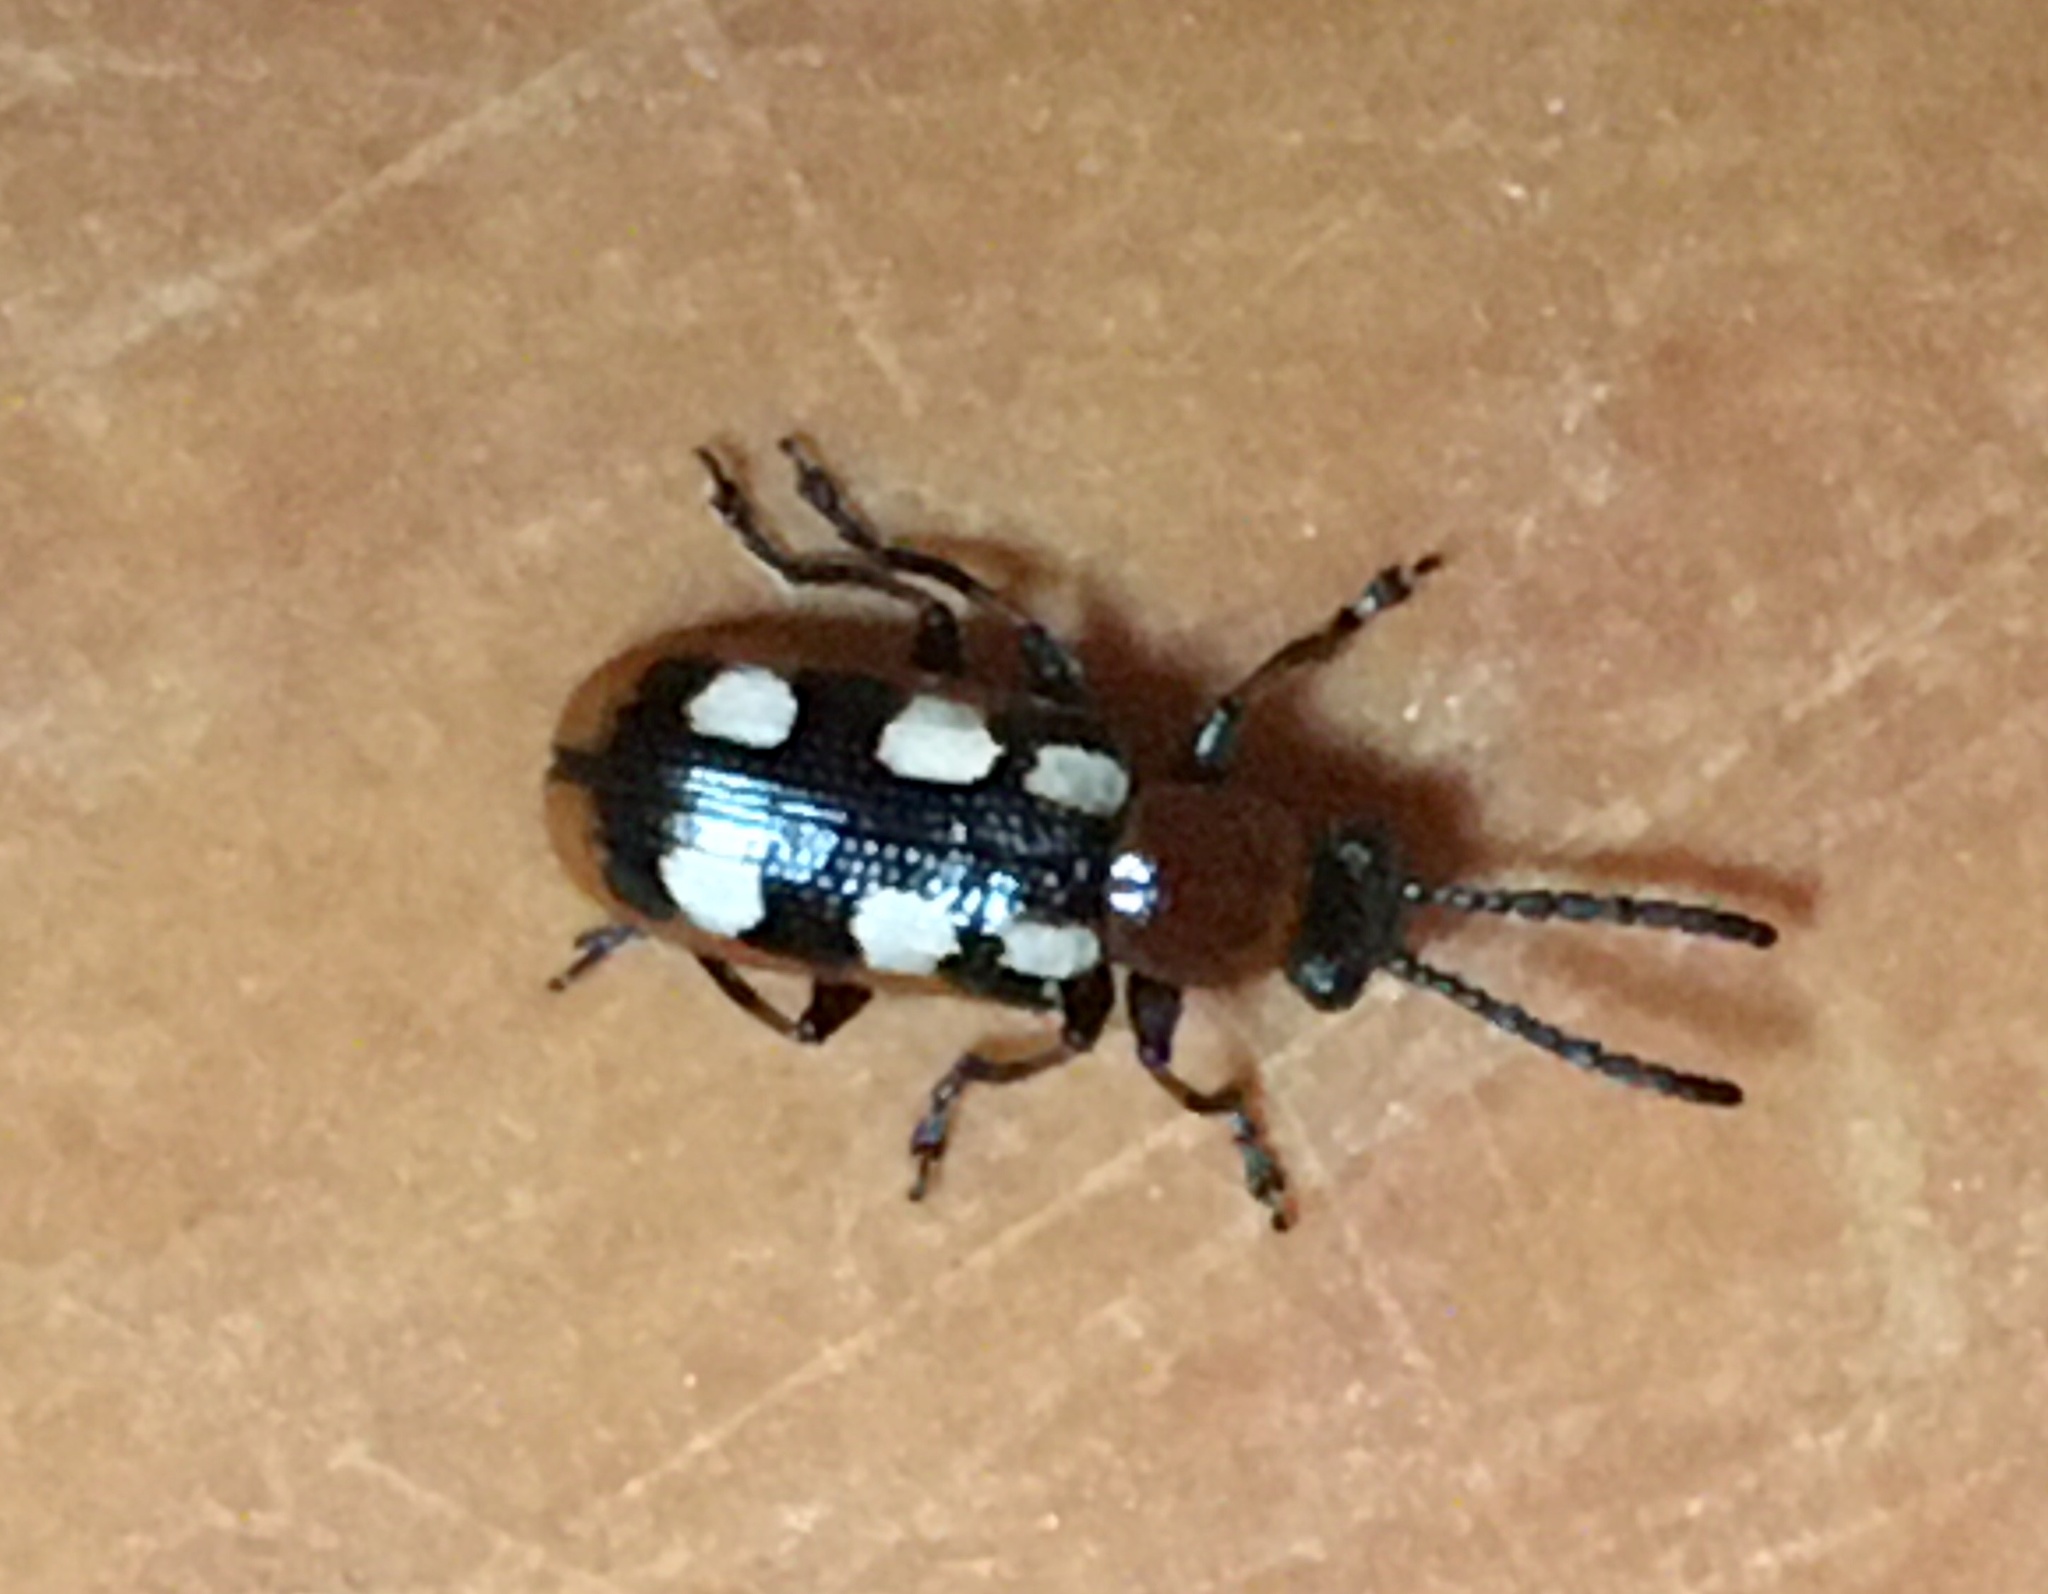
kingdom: Animalia
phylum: Arthropoda
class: Insecta
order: Coleoptera
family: Chrysomelidae
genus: Crioceris
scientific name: Crioceris asparagi
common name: Asparagus beetle
